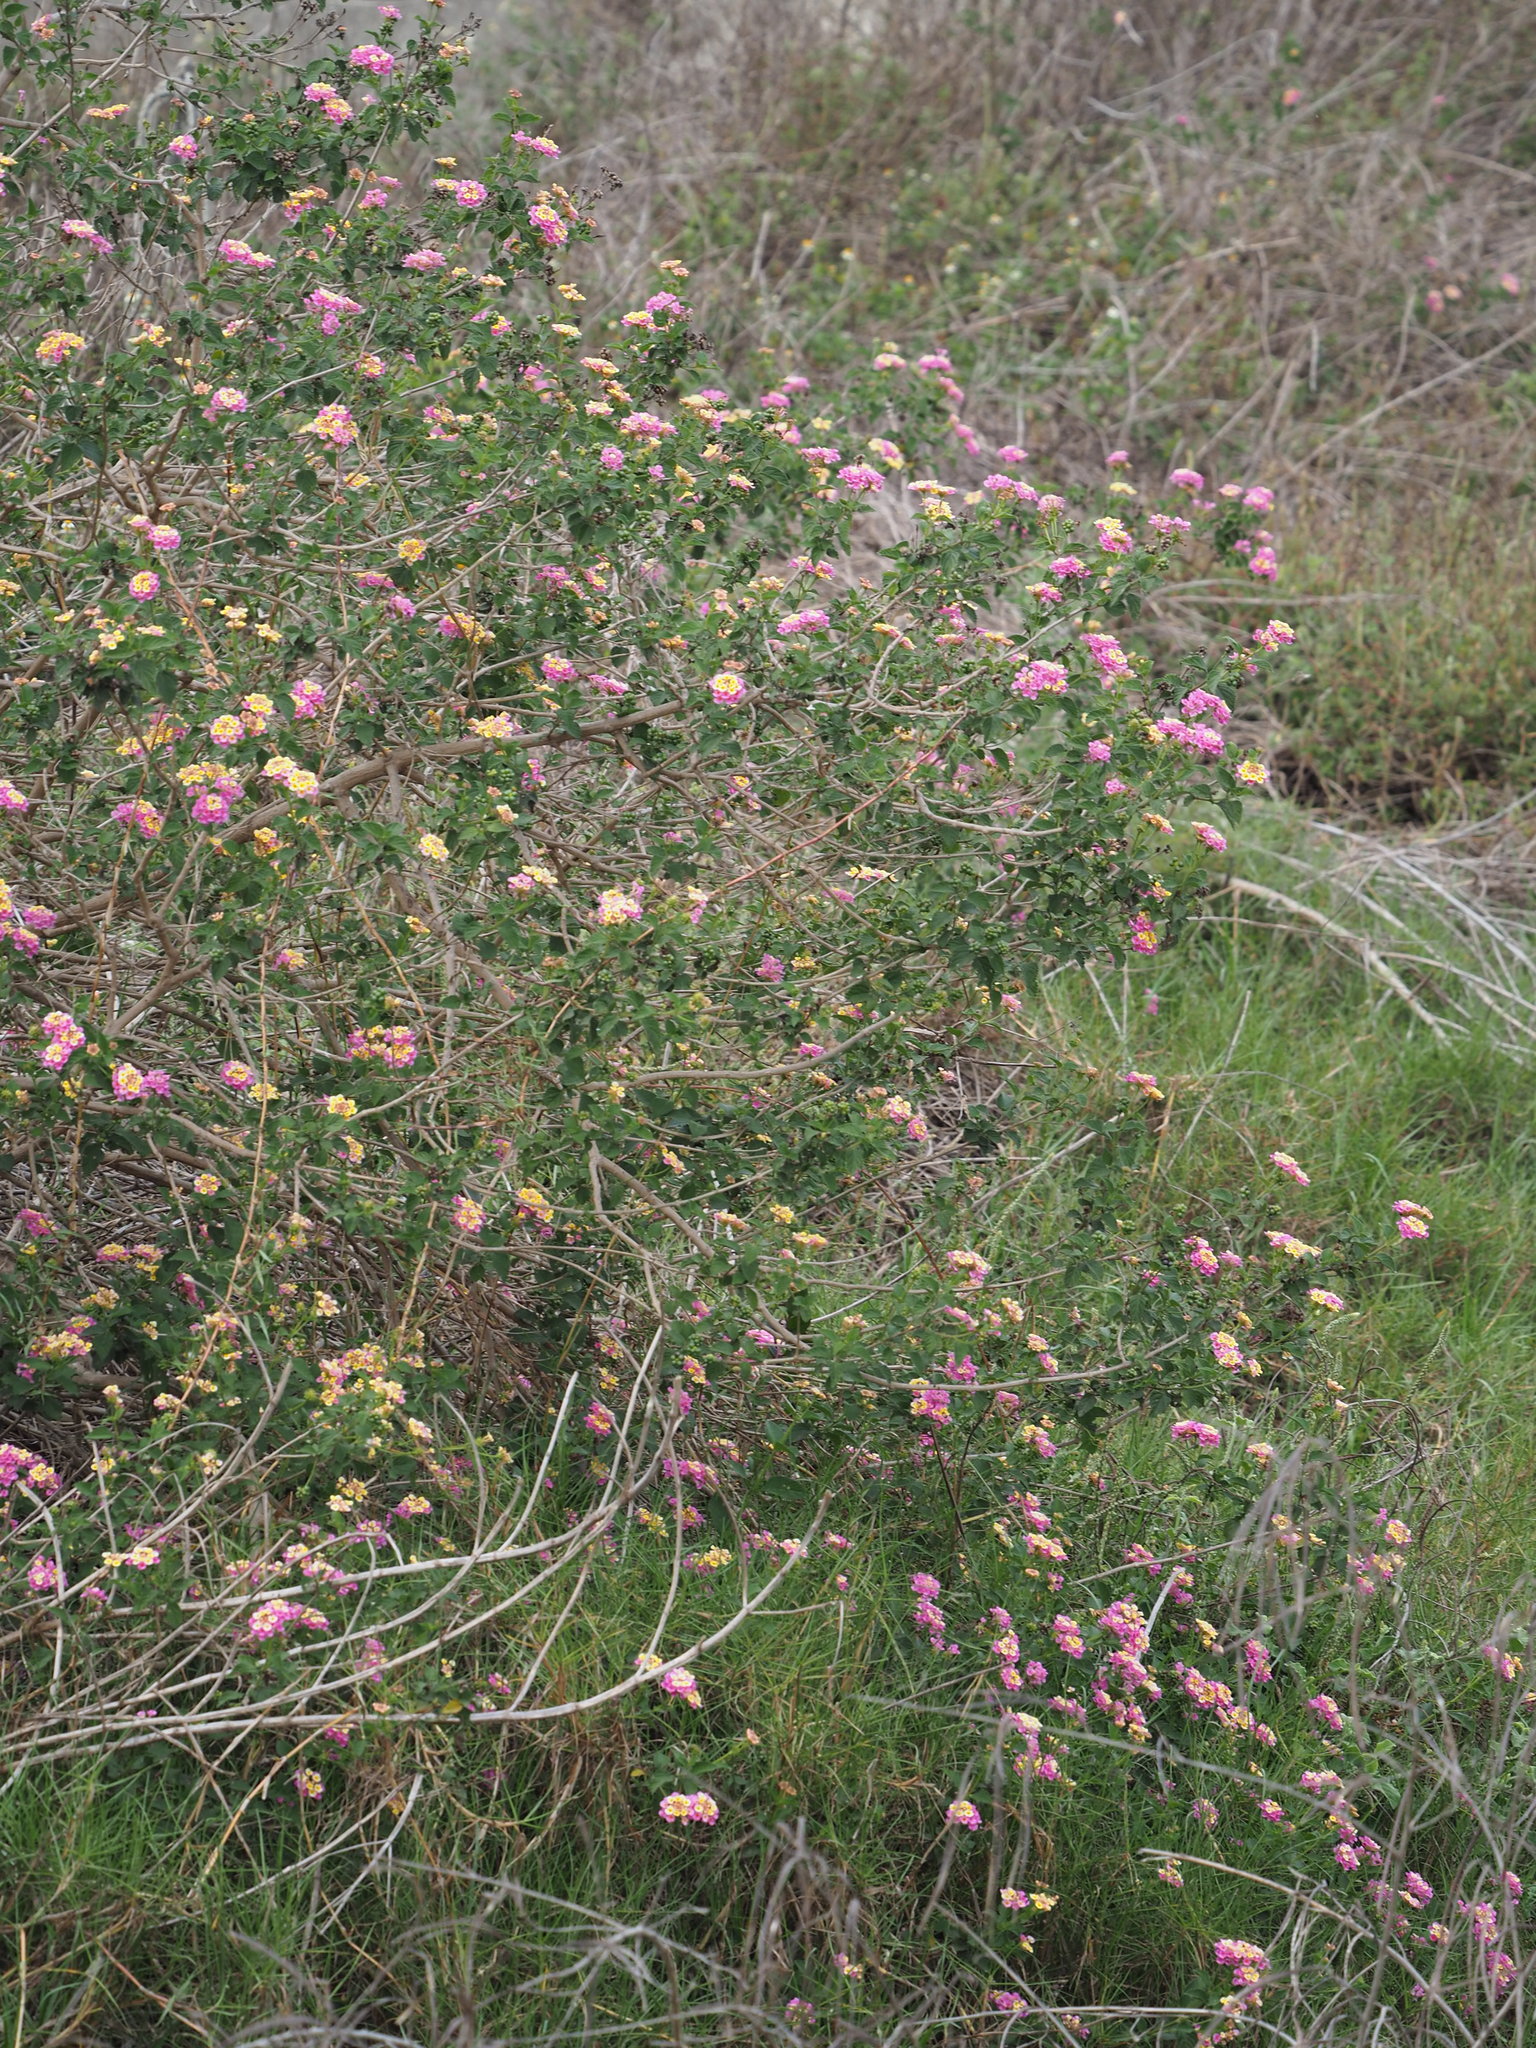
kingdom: Plantae
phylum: Tracheophyta
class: Magnoliopsida
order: Lamiales
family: Verbenaceae
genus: Lantana
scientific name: Lantana camara
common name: Lantana
